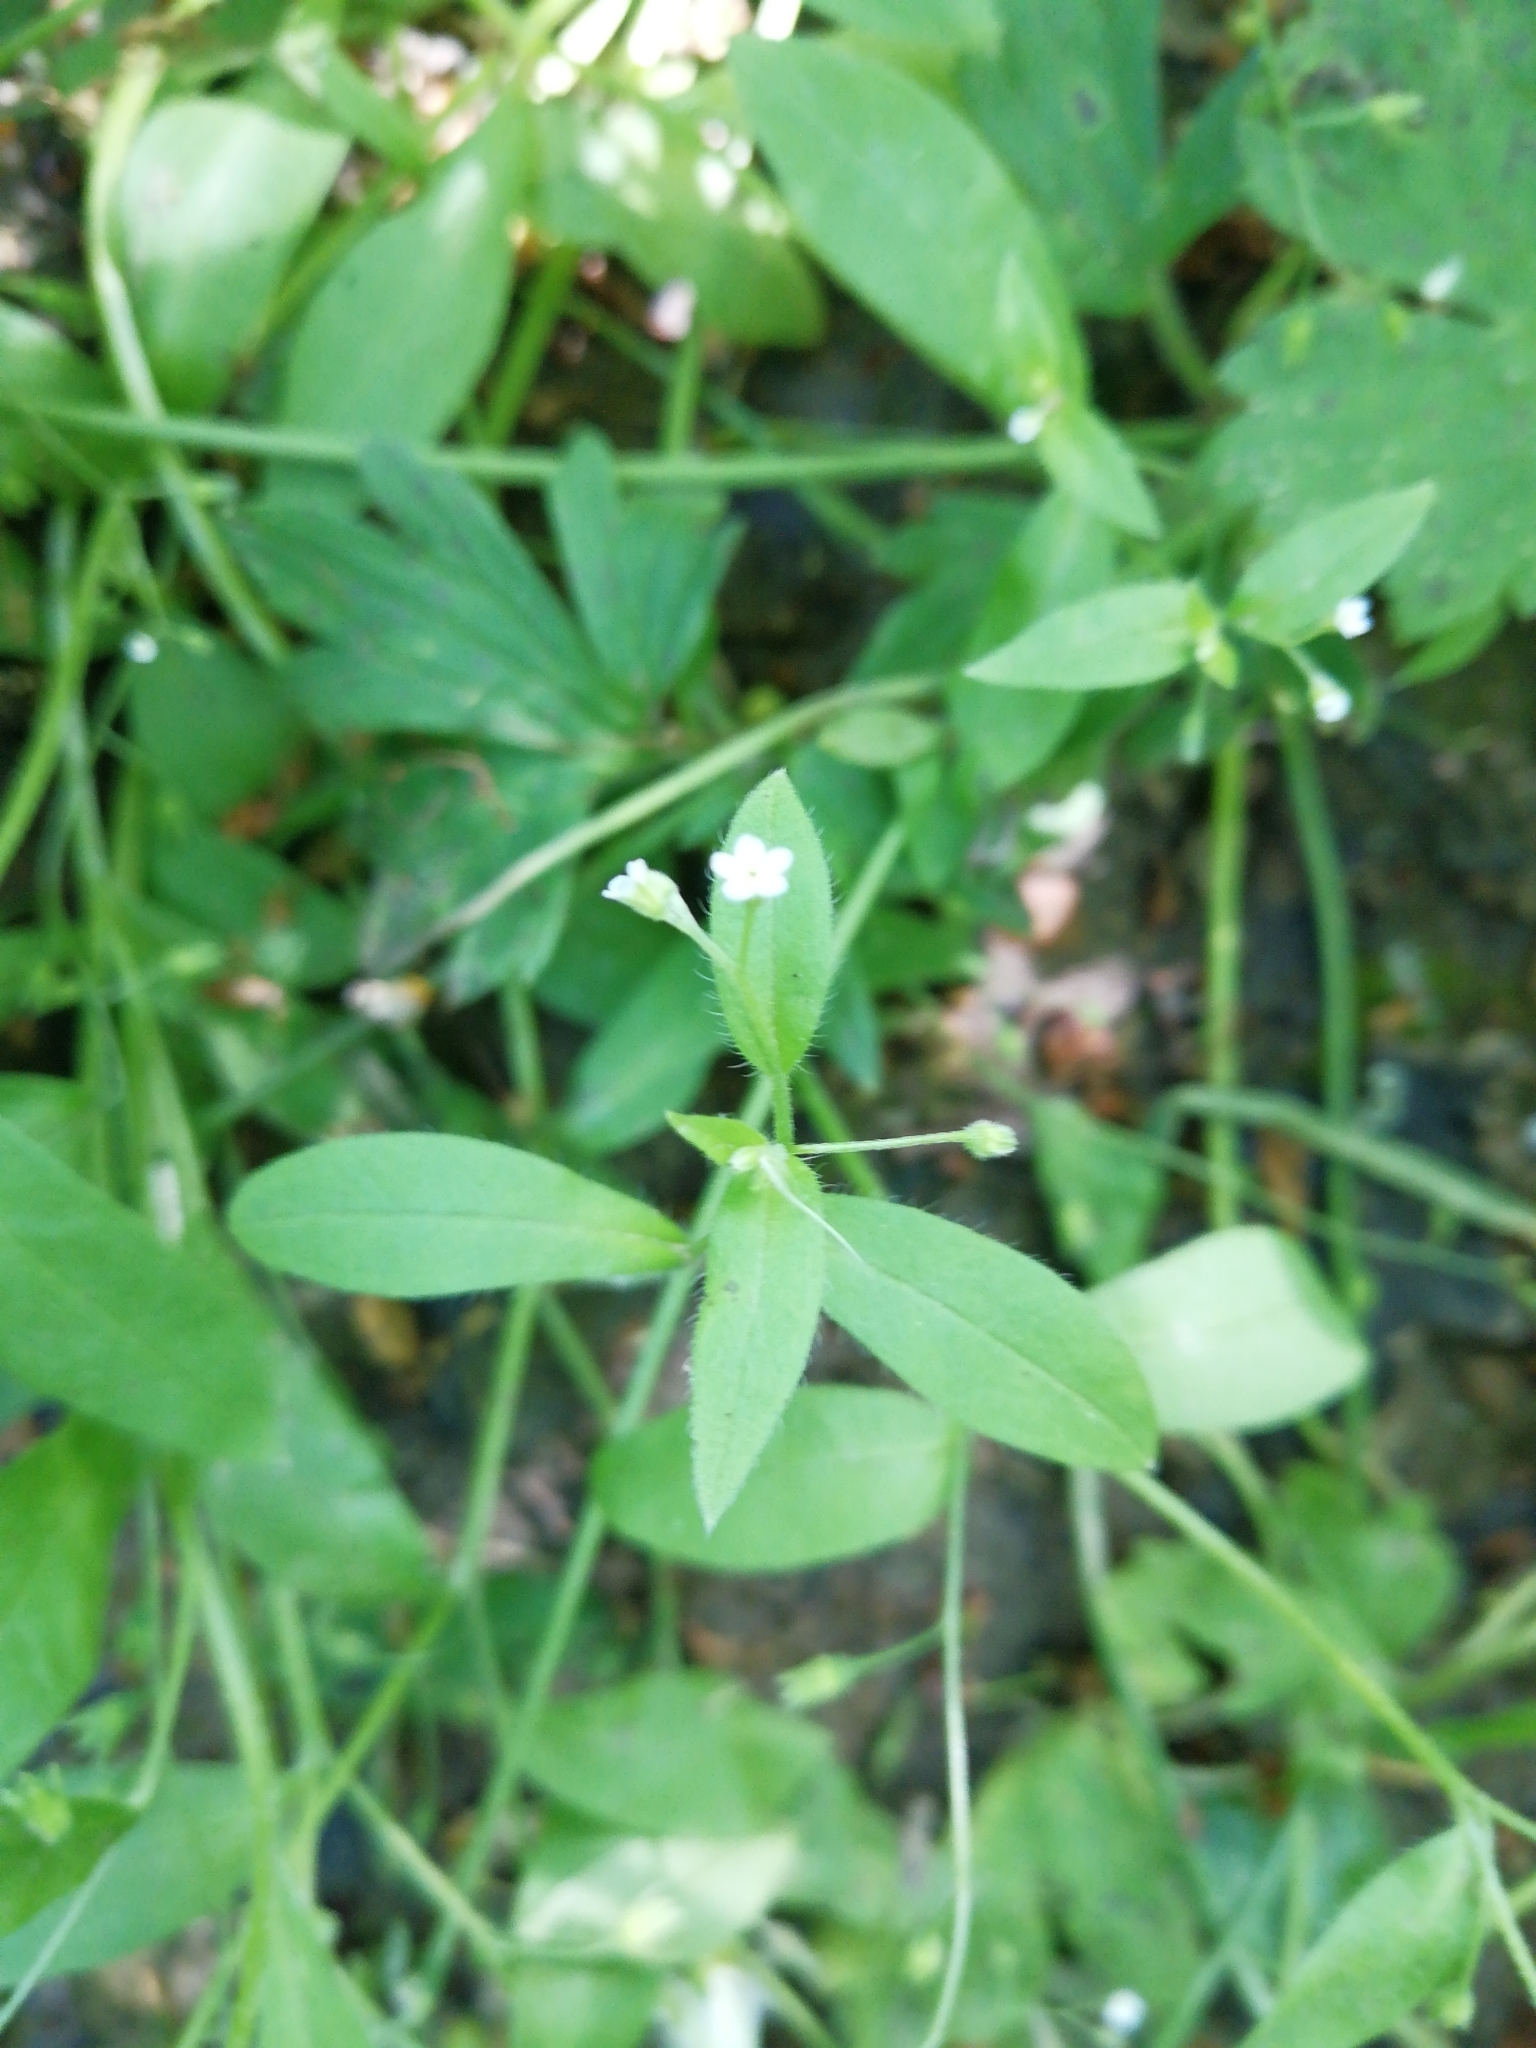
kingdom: Plantae
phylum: Tracheophyta
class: Magnoliopsida
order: Boraginales
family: Boraginaceae
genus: Myosotis
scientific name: Myosotis sparsiflora
